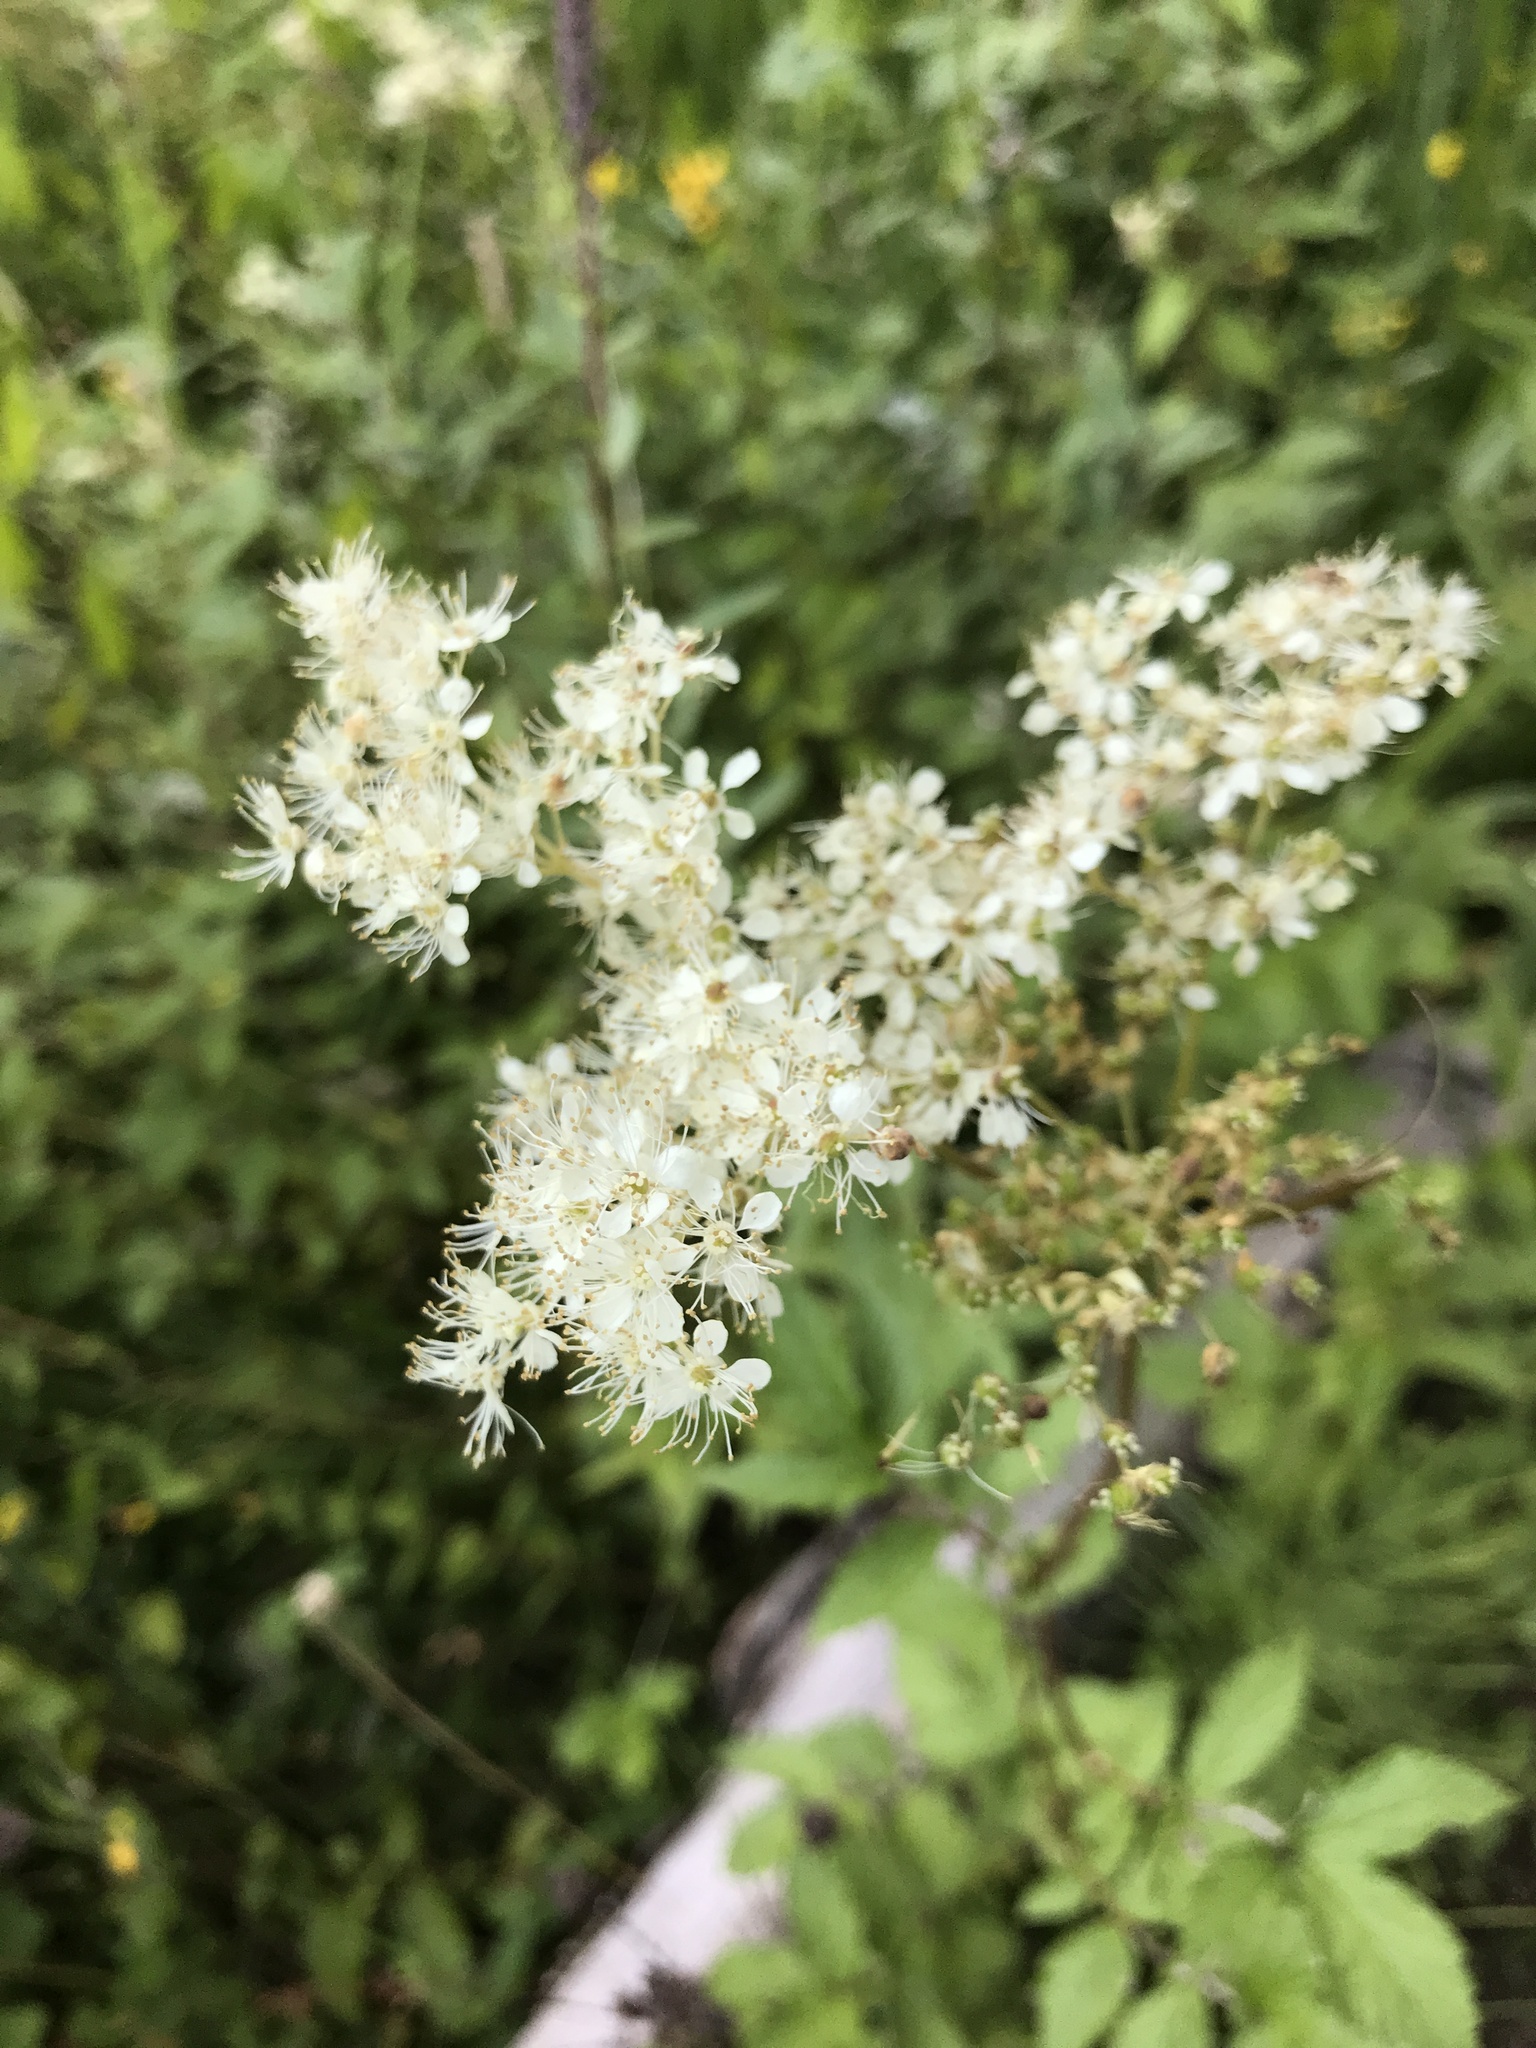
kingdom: Plantae
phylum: Tracheophyta
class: Magnoliopsida
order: Rosales
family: Rosaceae
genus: Filipendula
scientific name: Filipendula ulmaria
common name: Meadowsweet
